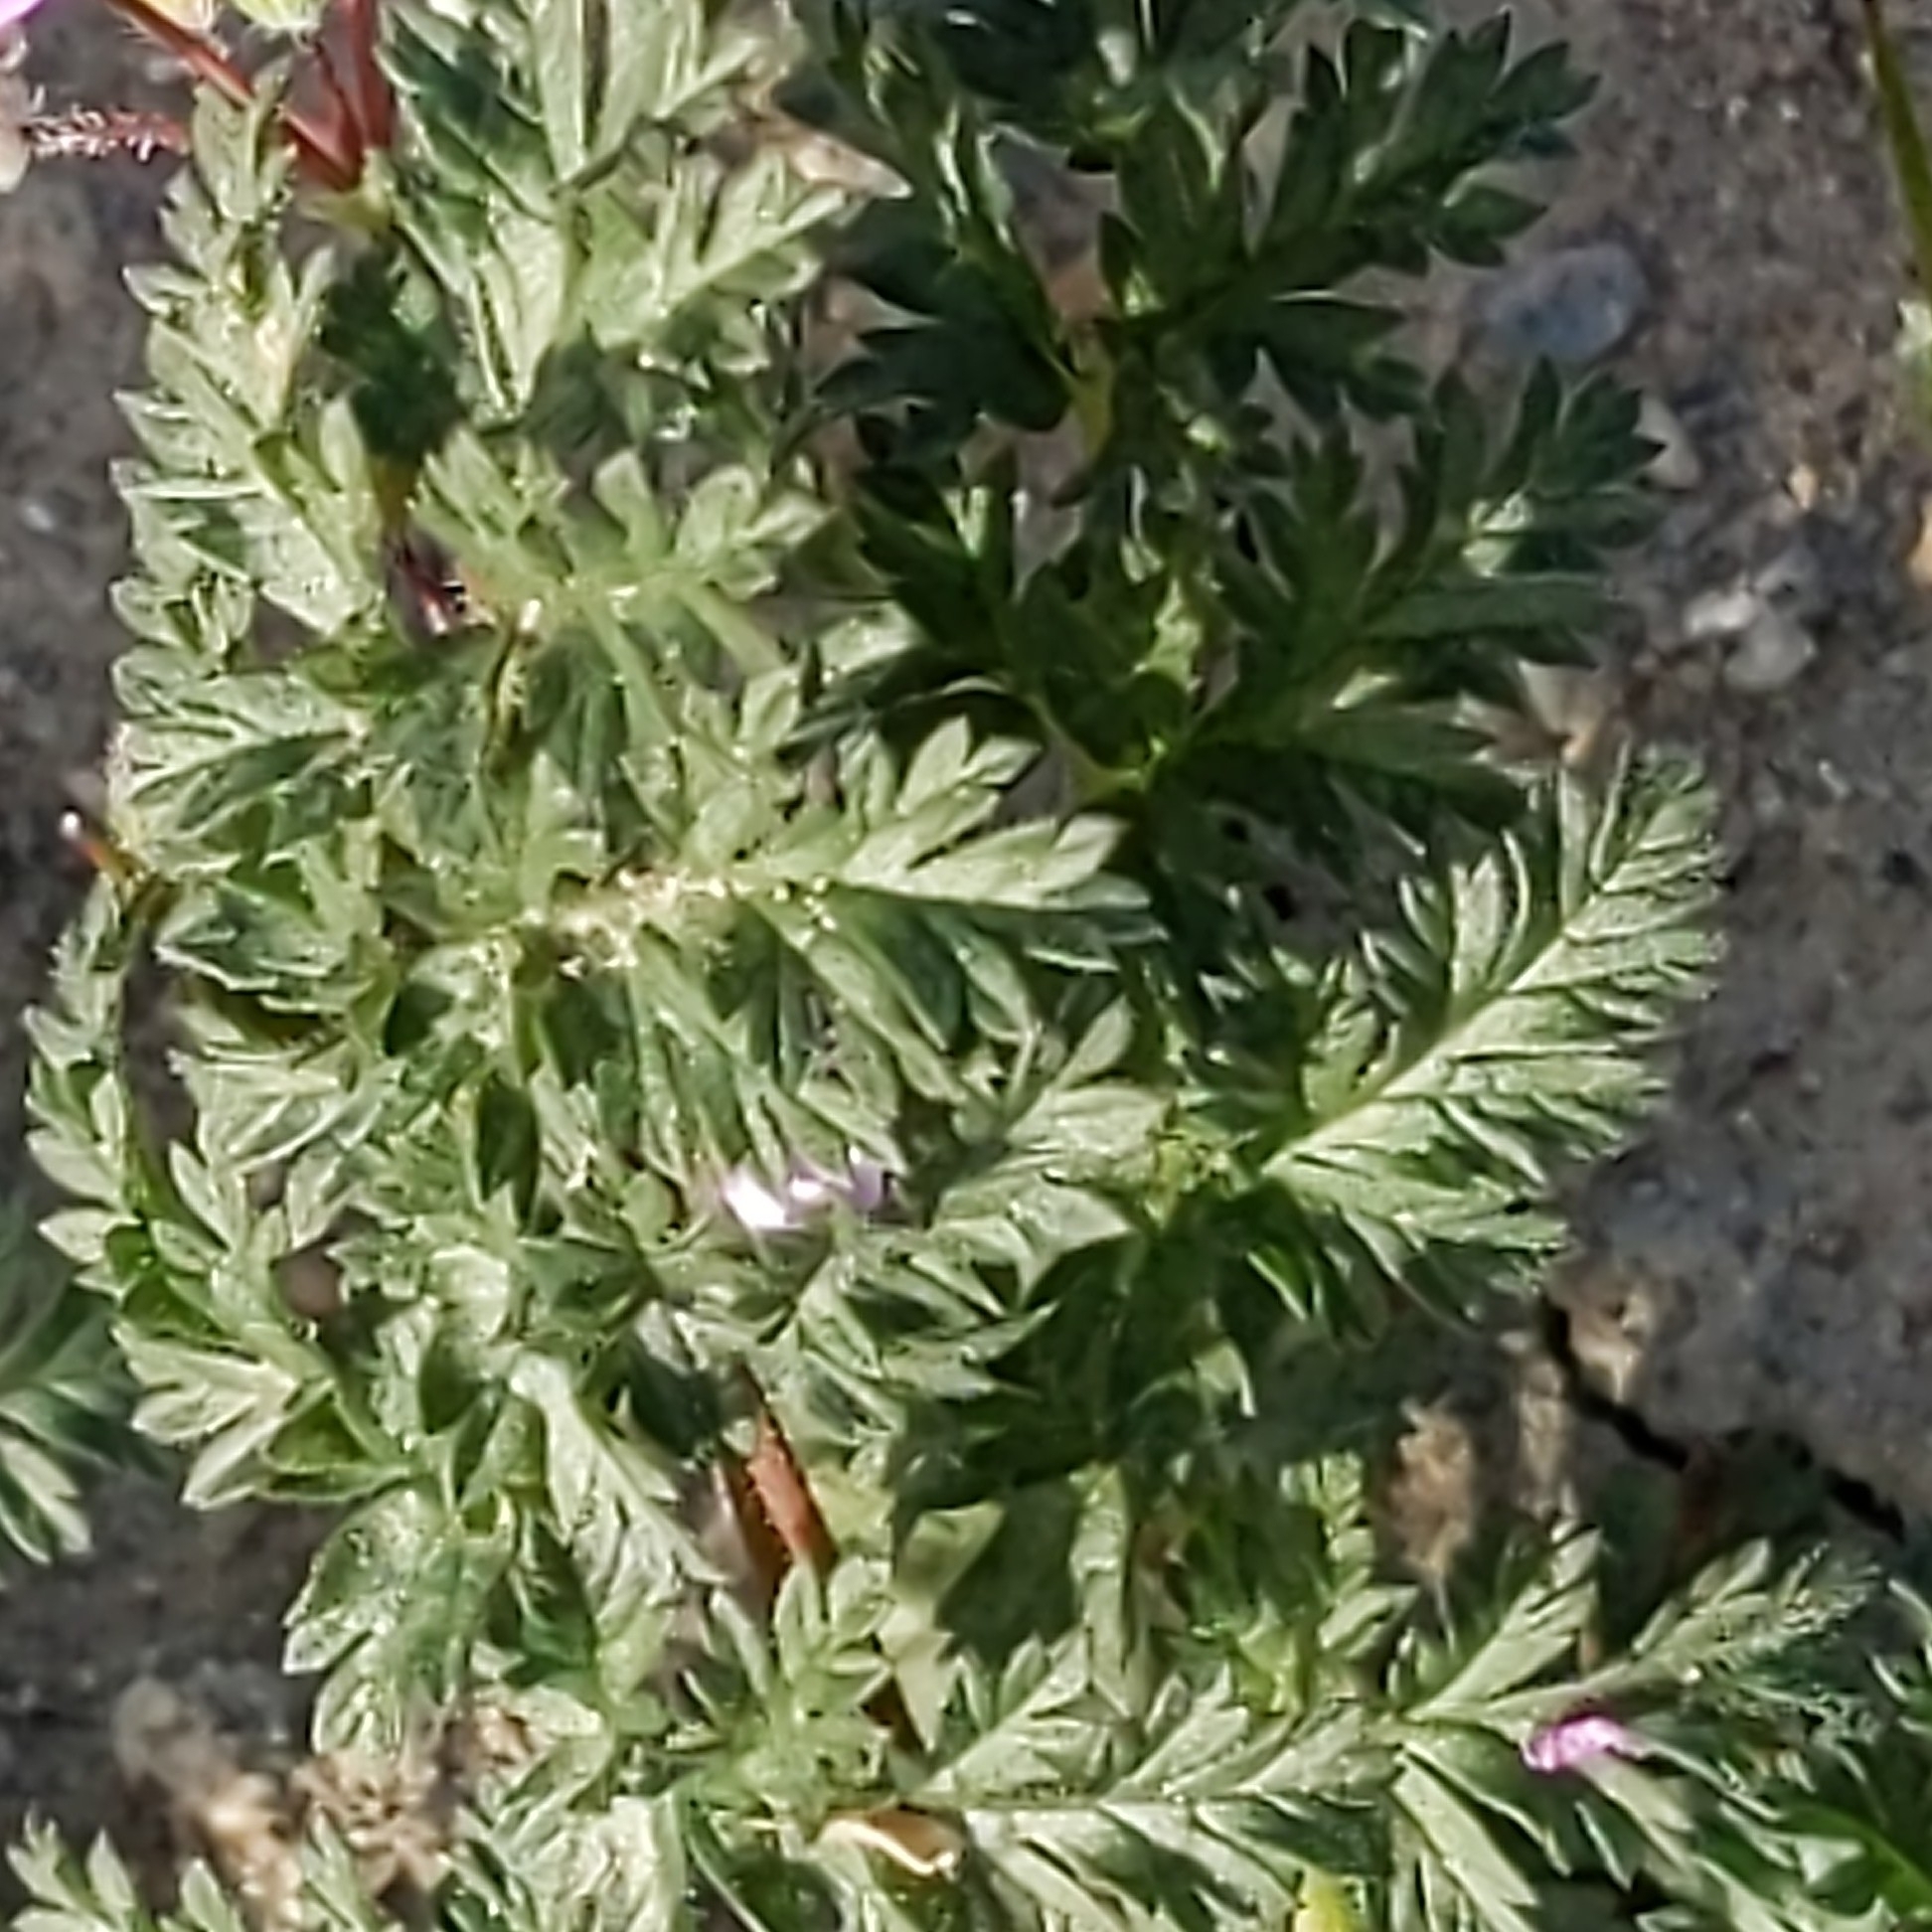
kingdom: Plantae
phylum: Tracheophyta
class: Magnoliopsida
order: Geraniales
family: Geraniaceae
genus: Erodium
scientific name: Erodium cicutarium
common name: Common stork's-bill
